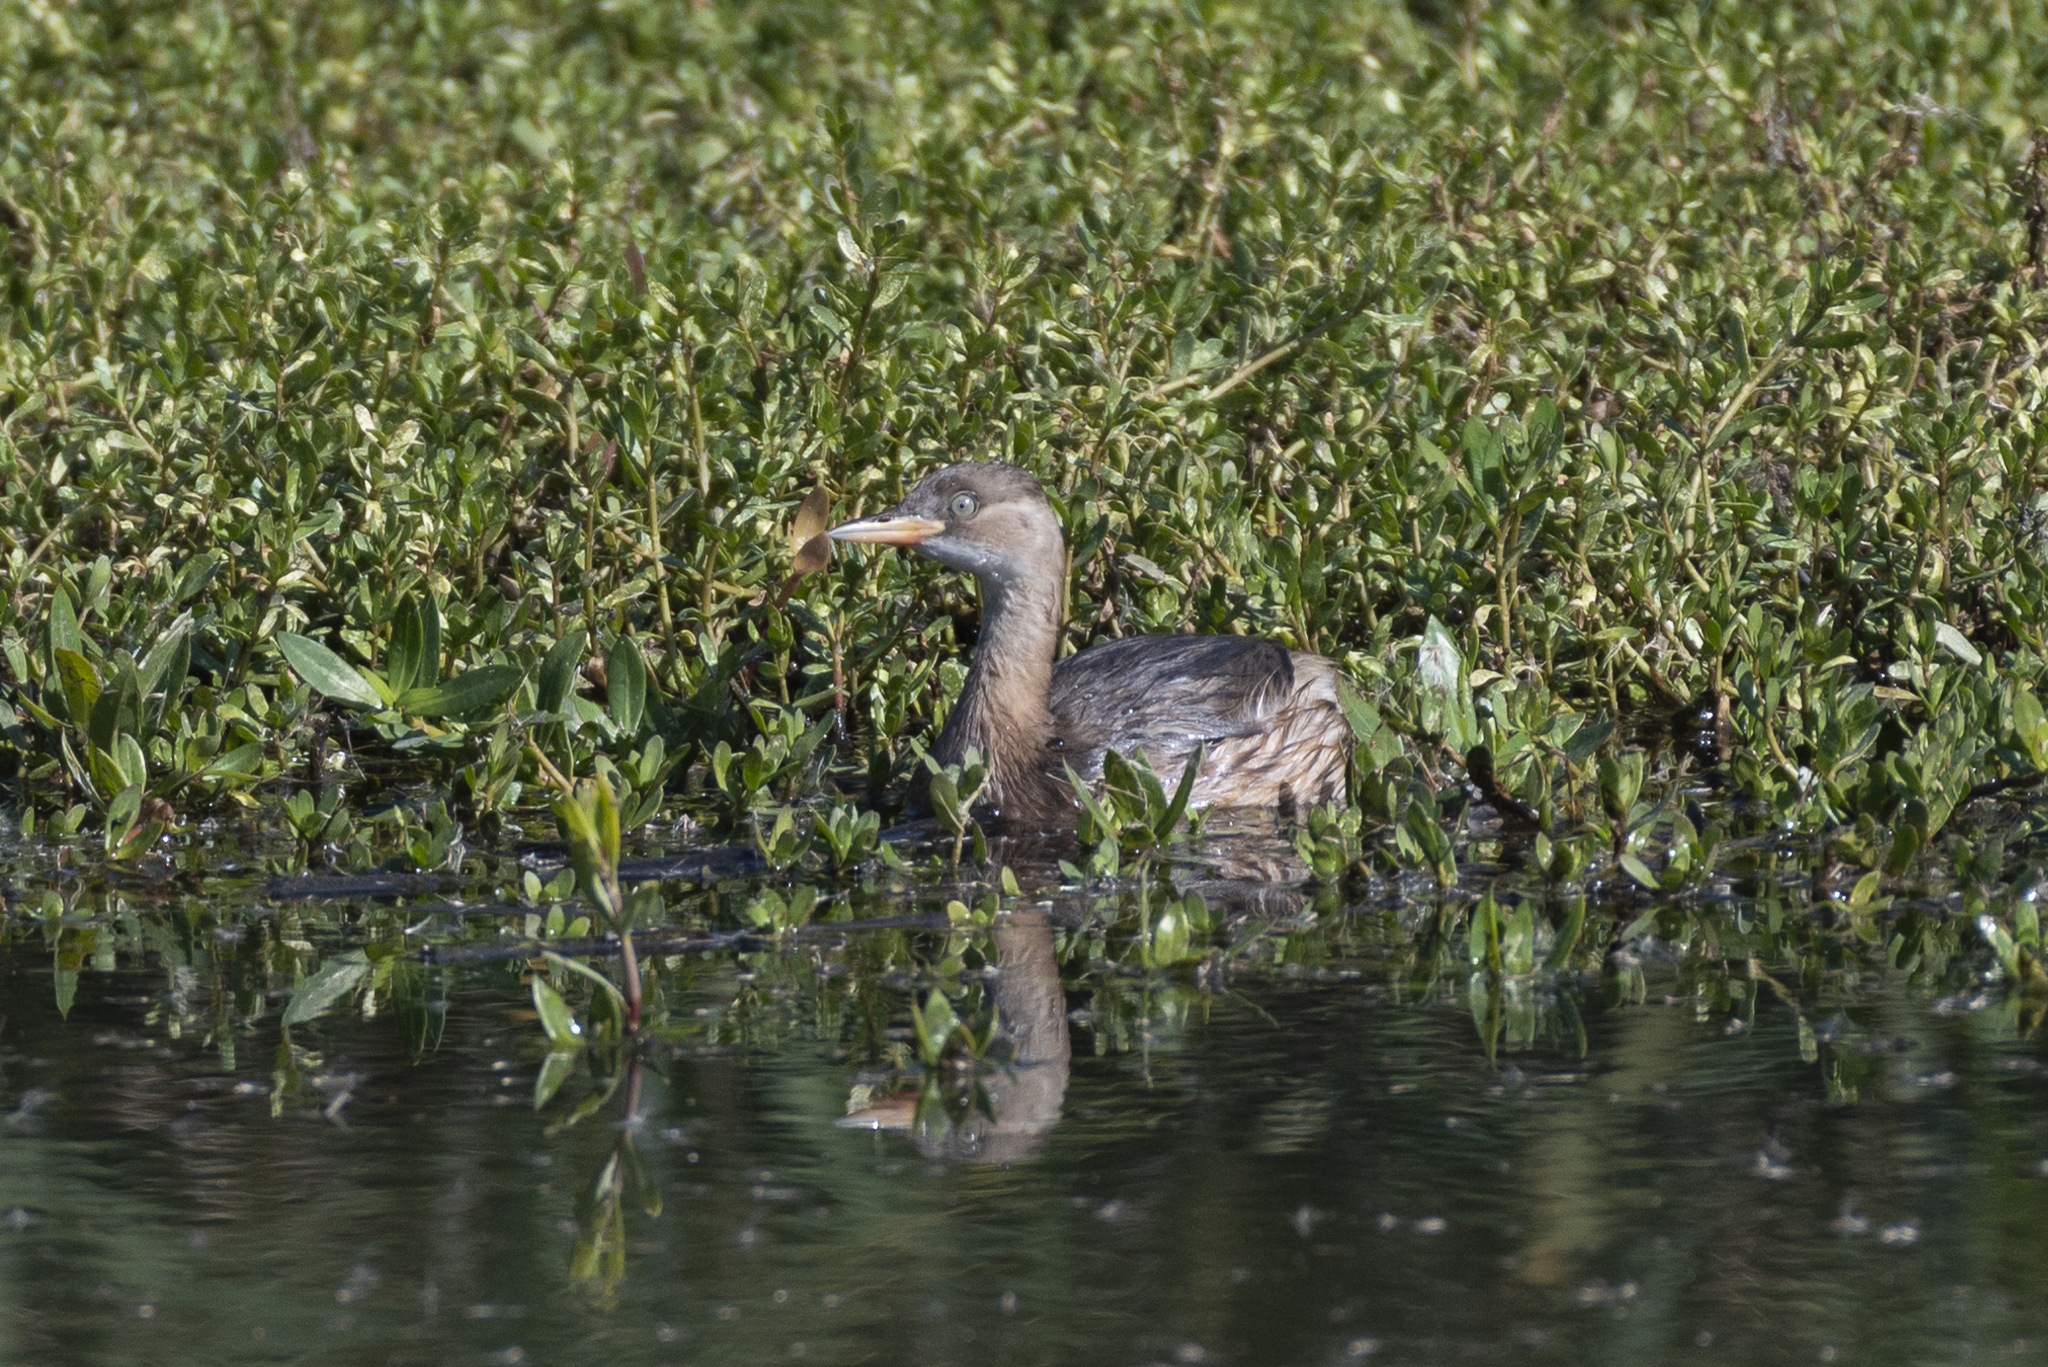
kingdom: Animalia
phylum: Chordata
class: Aves
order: Podicipediformes
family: Podicipedidae
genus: Tachybaptus
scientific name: Tachybaptus ruficollis
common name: Little grebe
